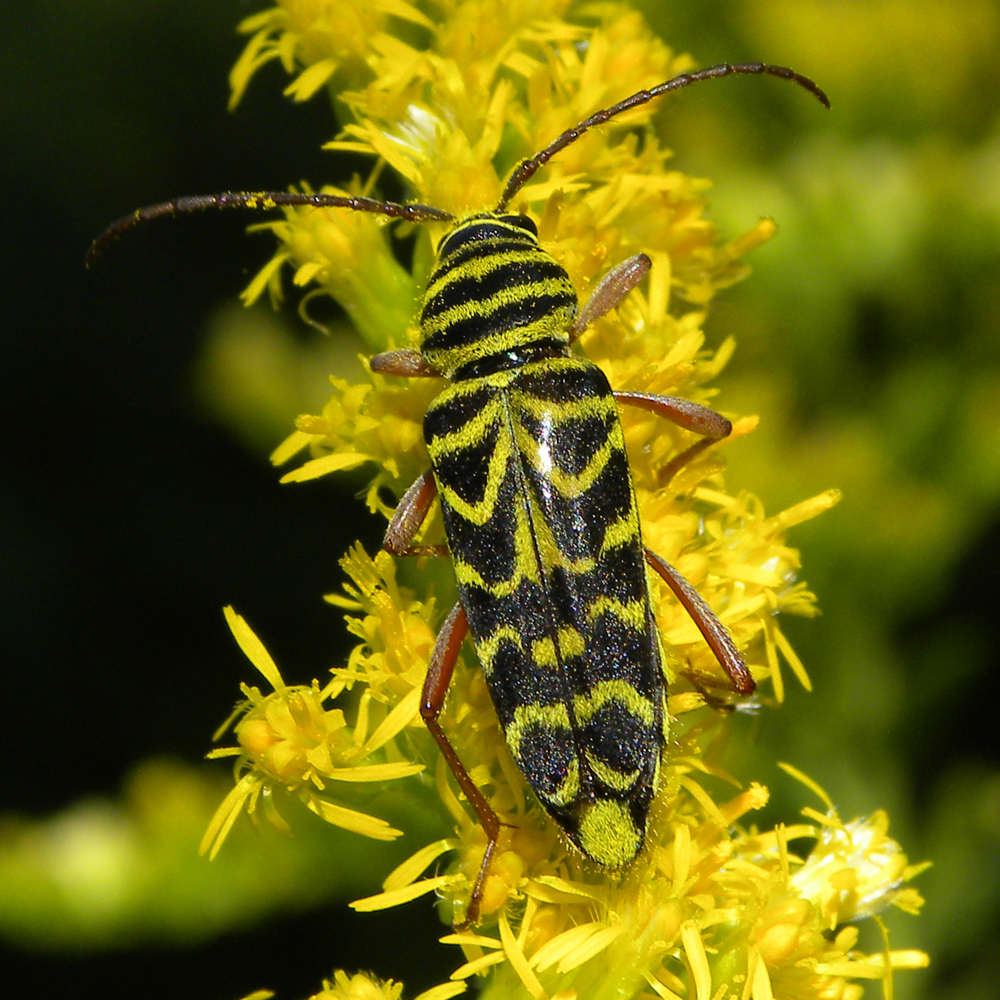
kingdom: Animalia
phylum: Arthropoda
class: Insecta
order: Coleoptera
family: Cerambycidae
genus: Megacyllene
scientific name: Megacyllene robiniae
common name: Locust borer
